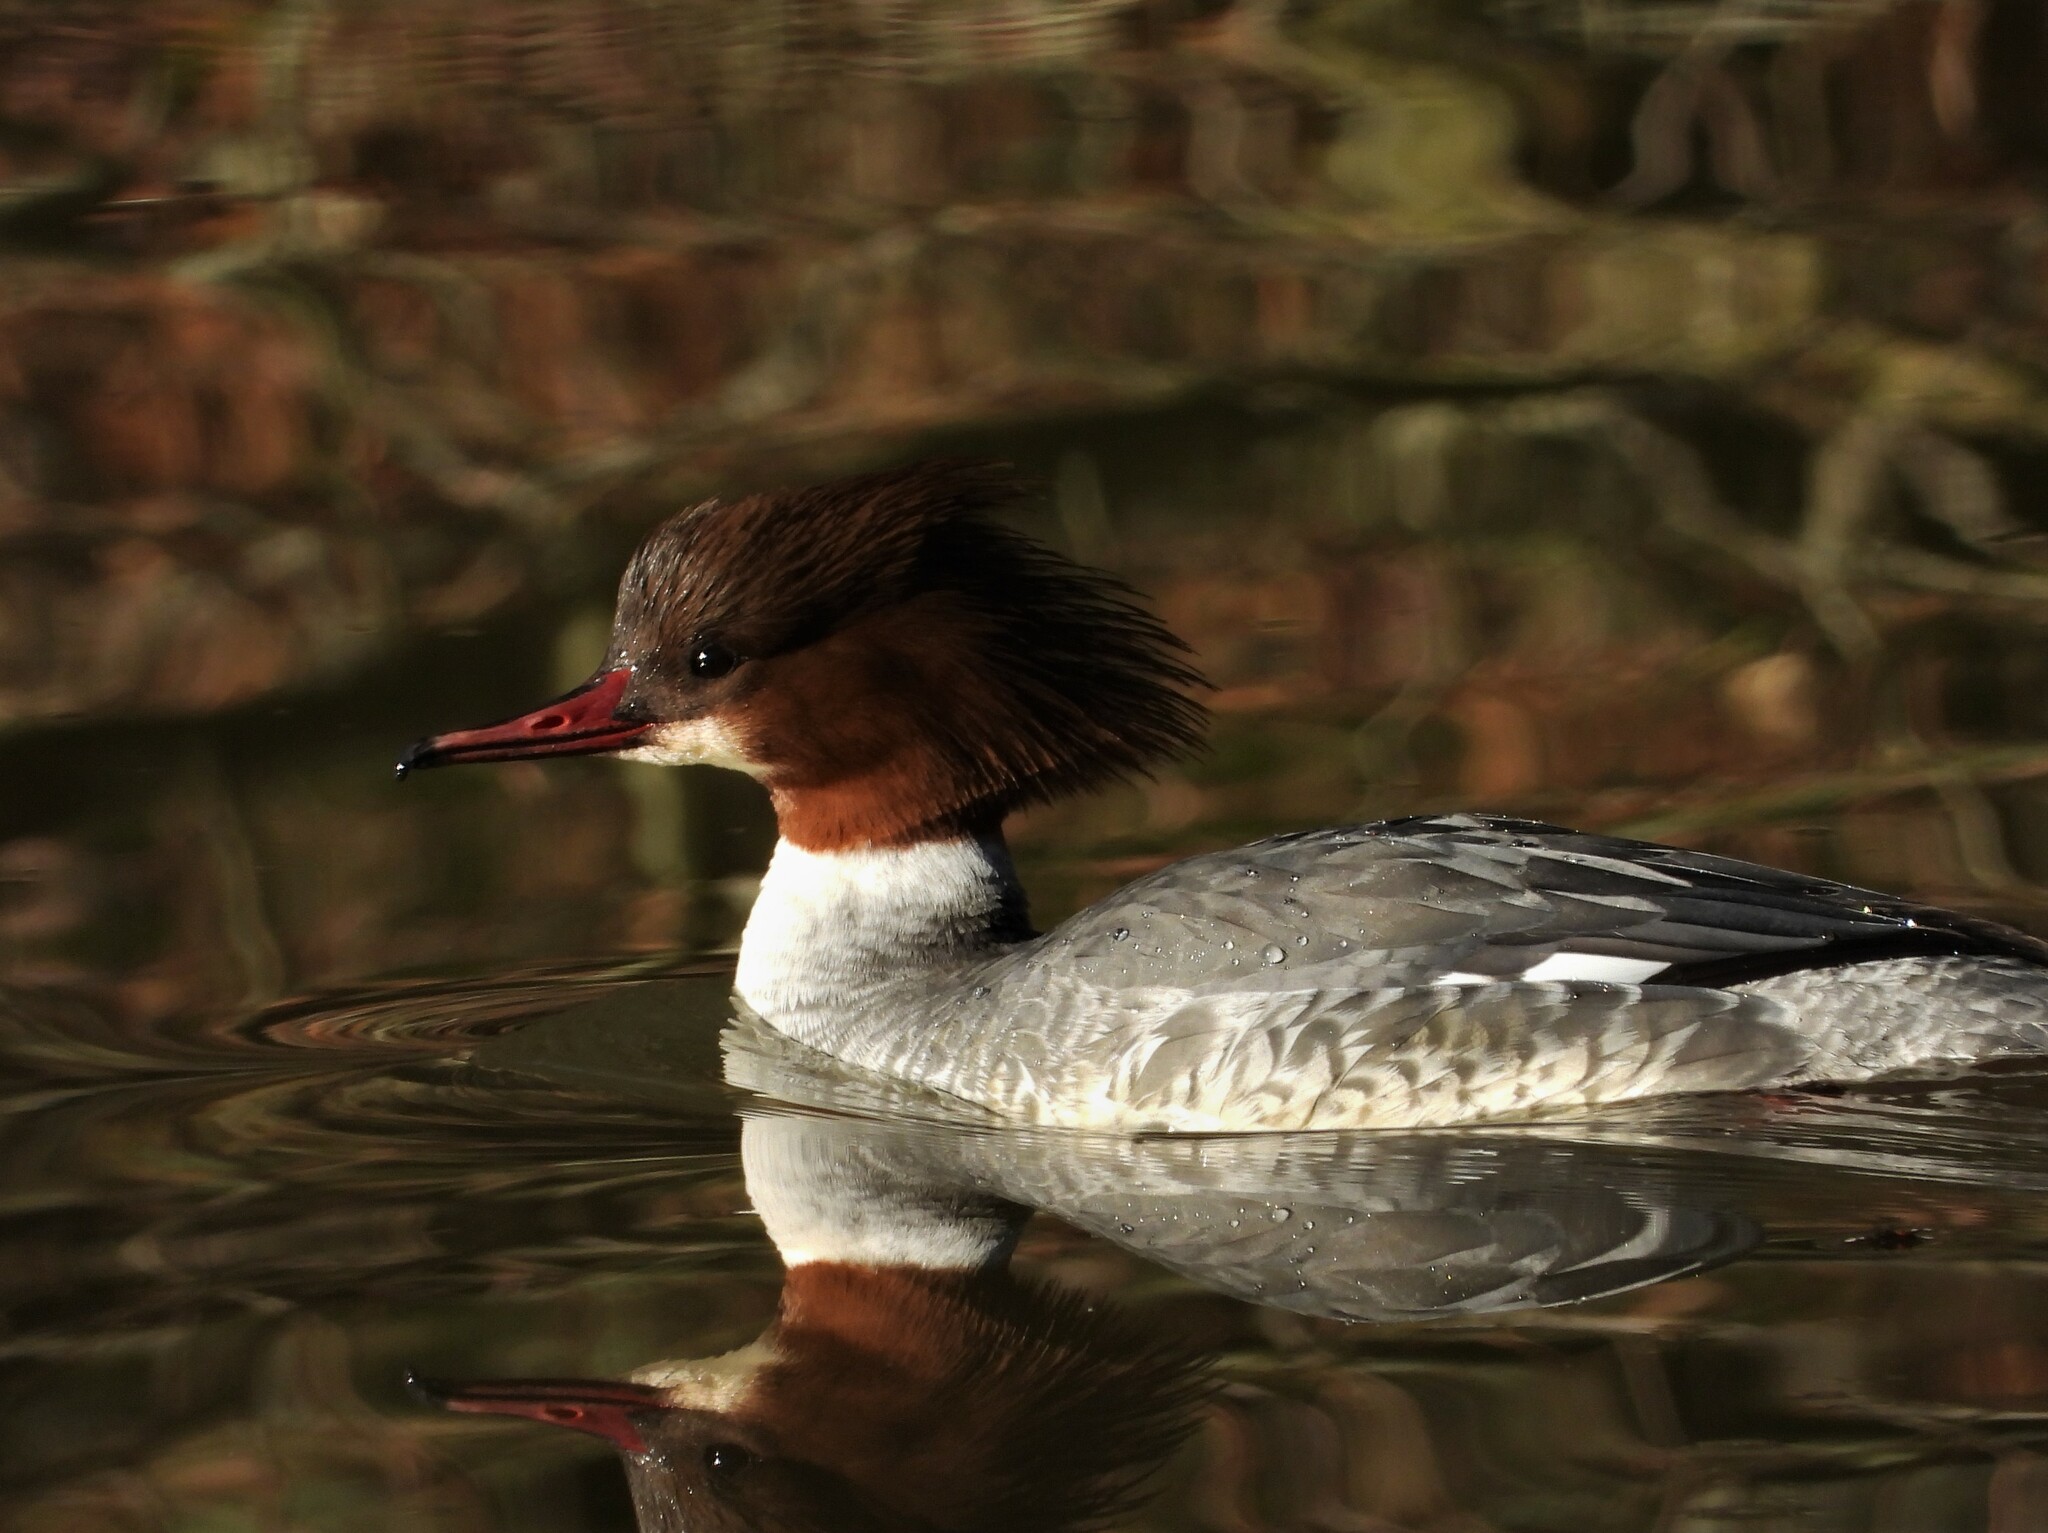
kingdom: Animalia
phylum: Chordata
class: Aves
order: Anseriformes
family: Anatidae
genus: Mergus
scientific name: Mergus merganser
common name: Common merganser
